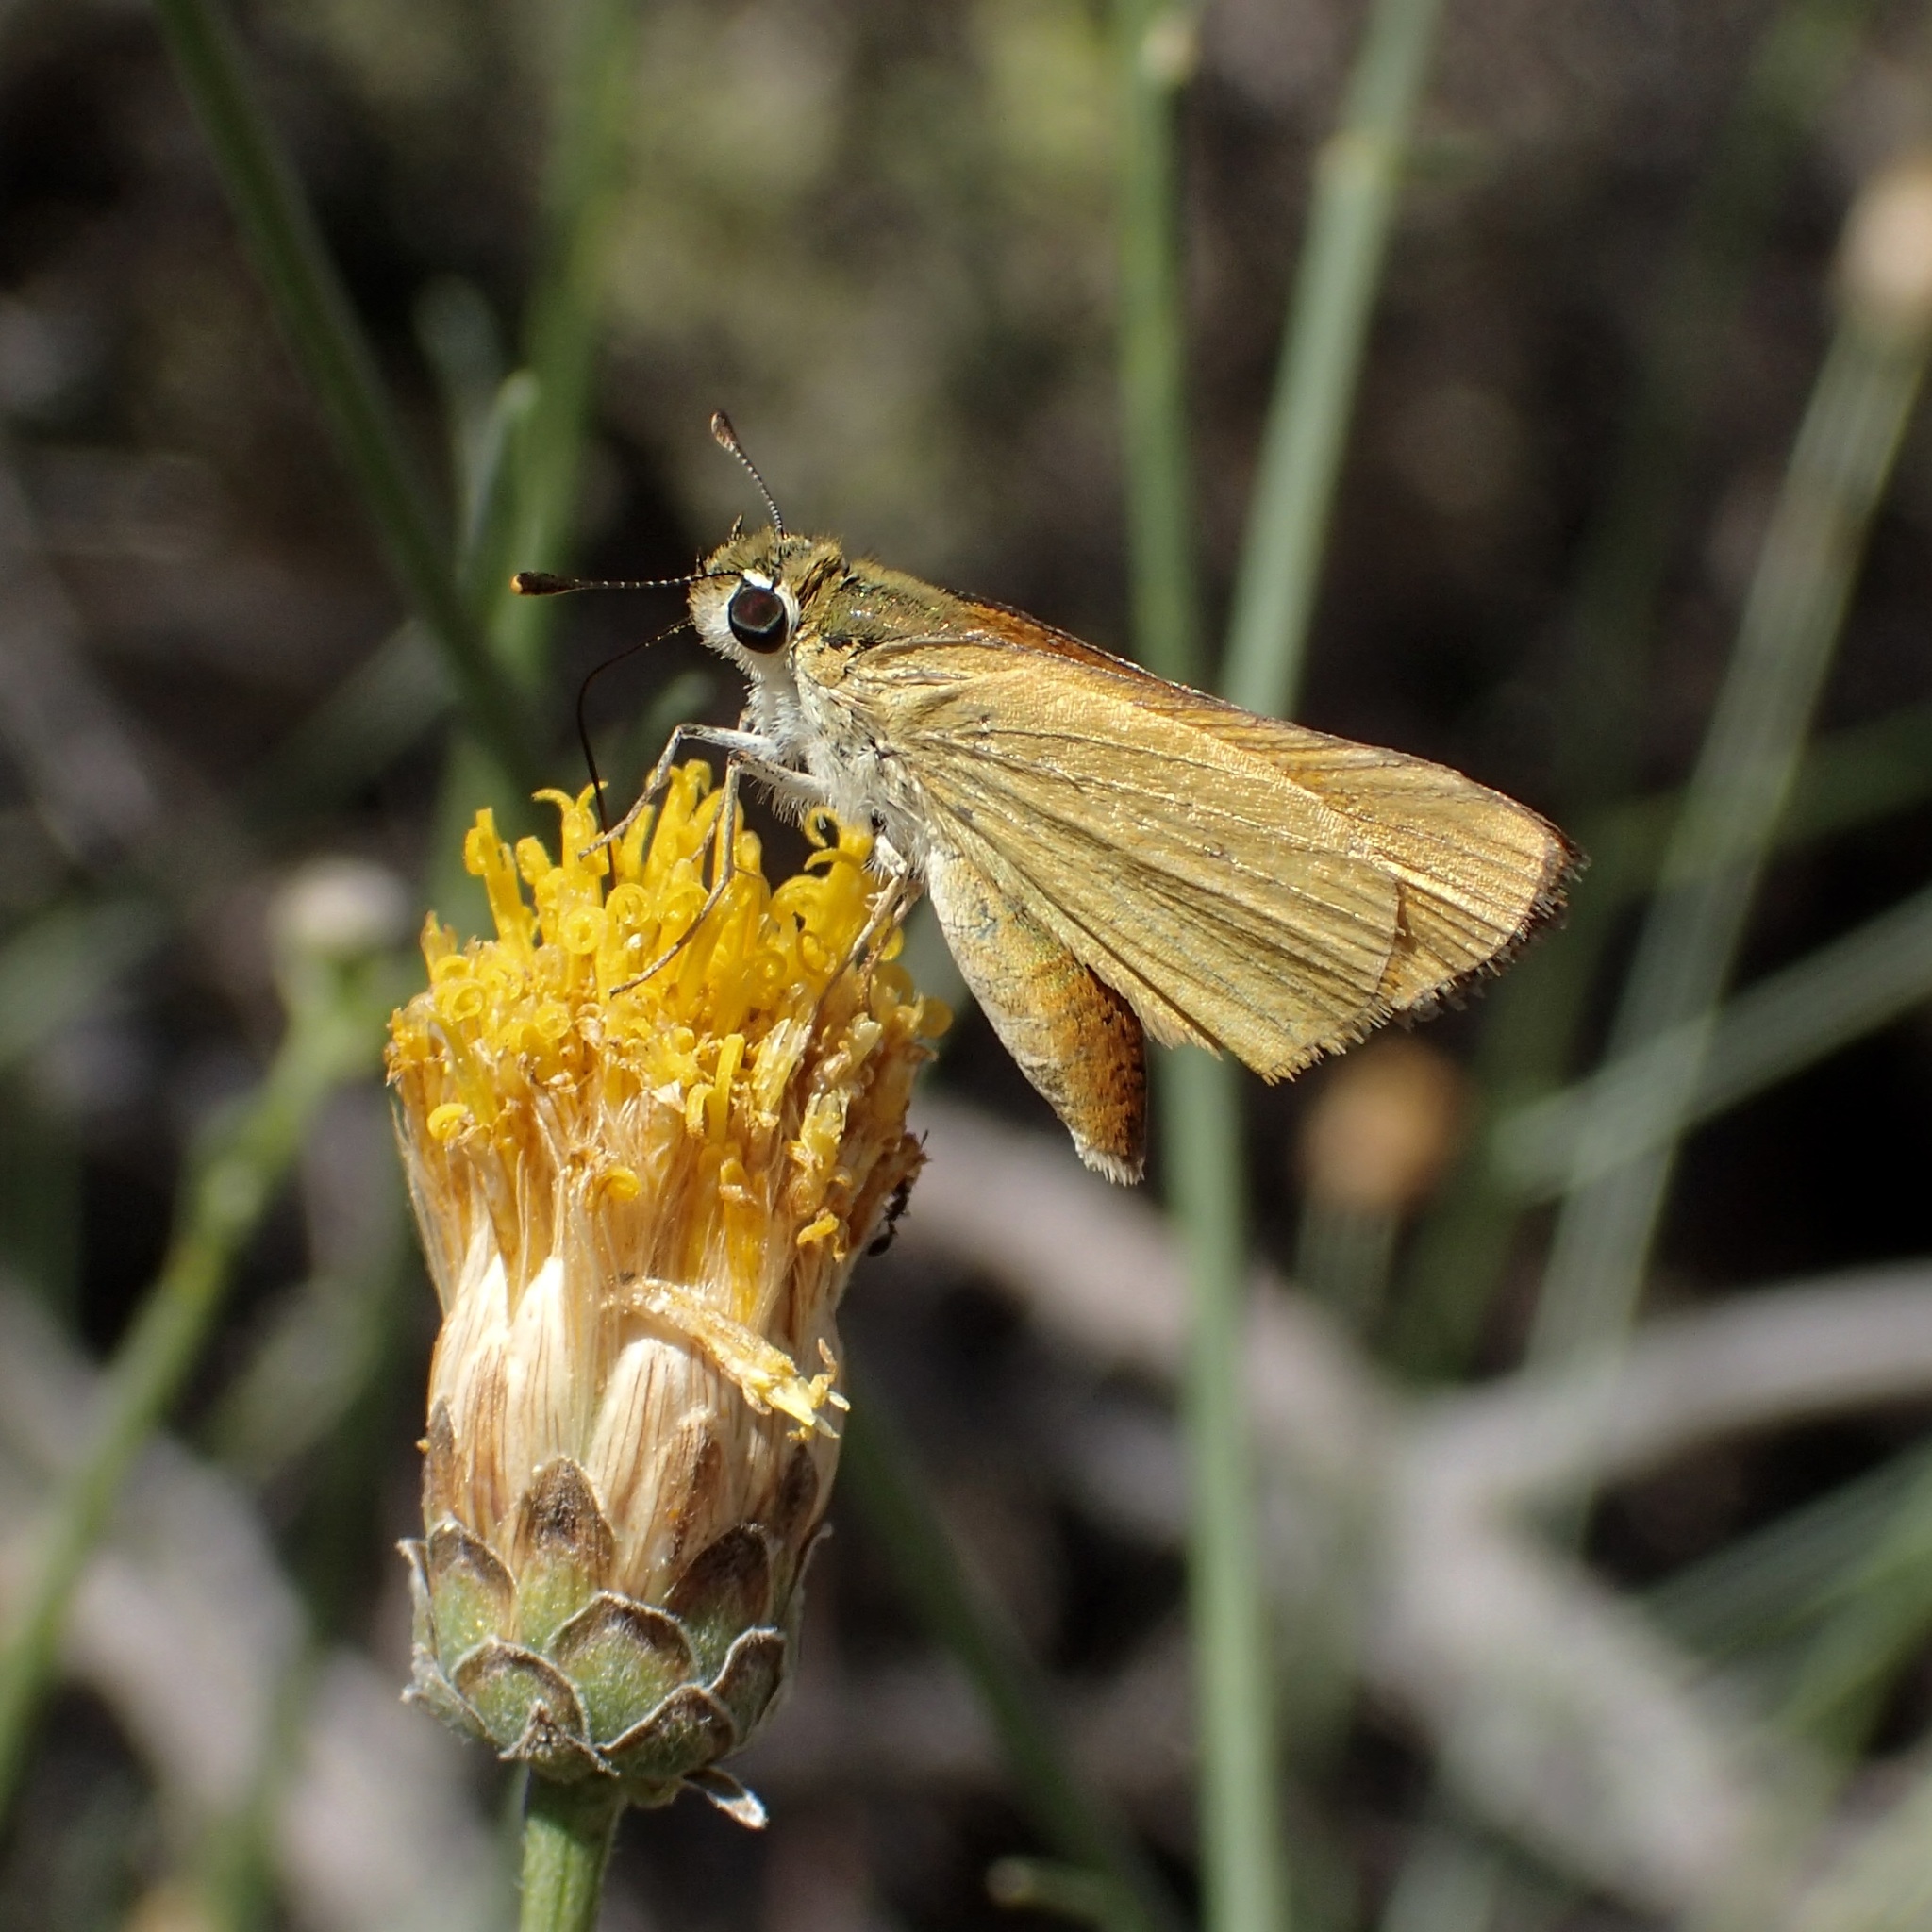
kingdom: Animalia
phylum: Arthropoda
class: Insecta
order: Lepidoptera
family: Hesperiidae
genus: Copaeodes
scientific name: Copaeodes aurantiaca
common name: Orange skipperling
